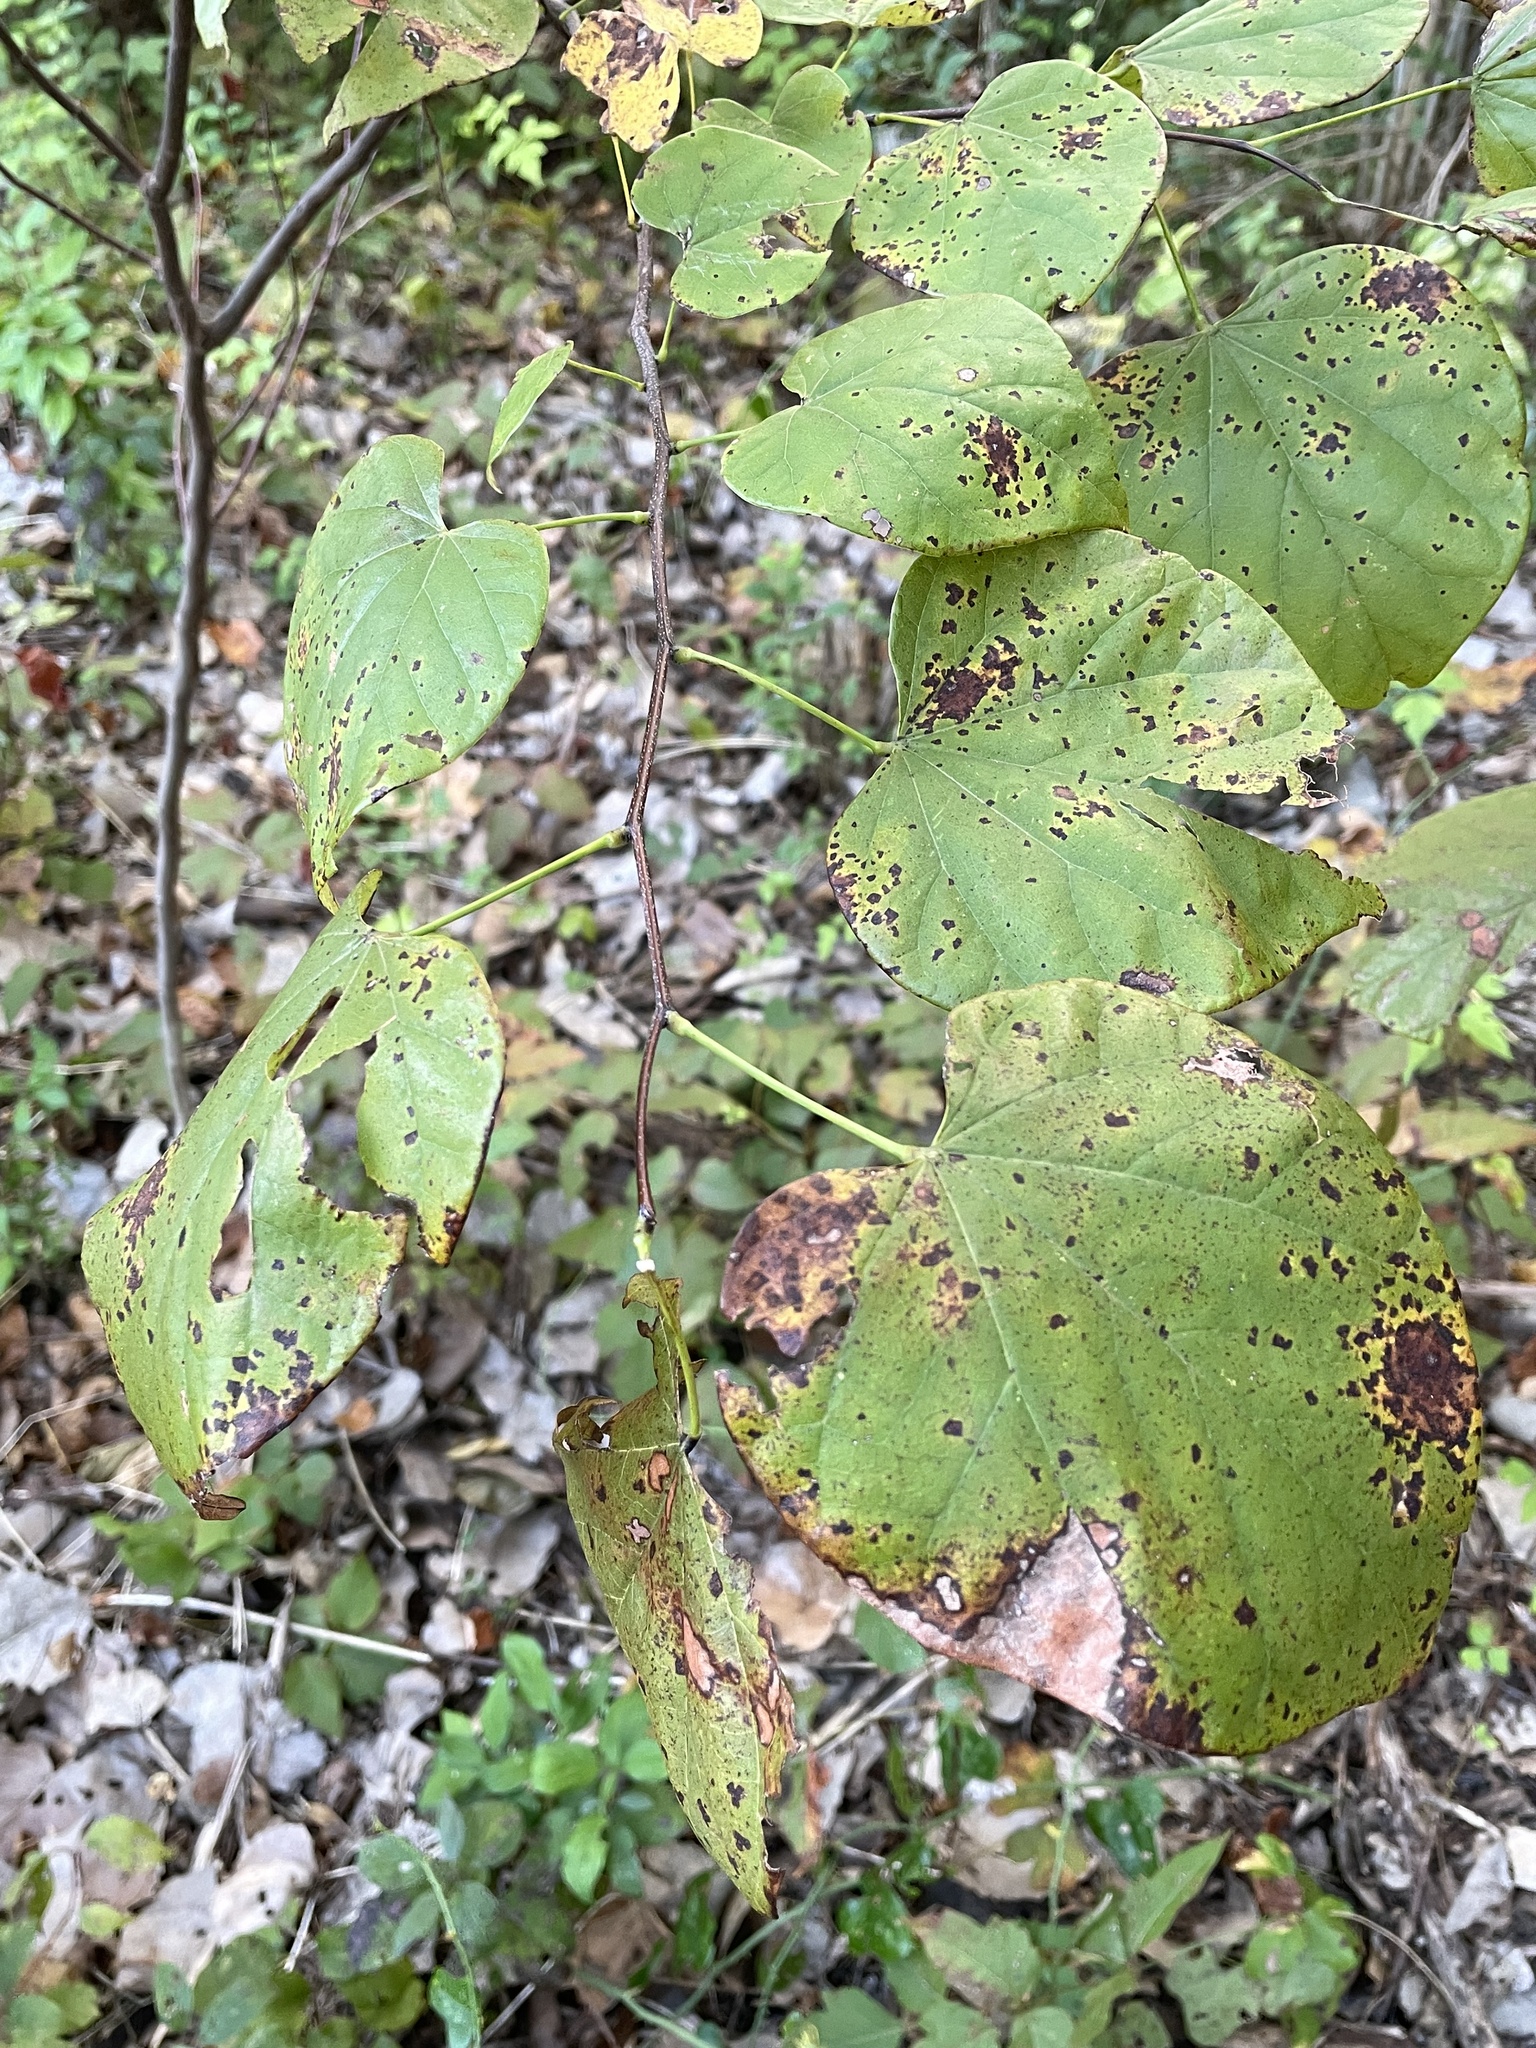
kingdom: Plantae
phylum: Tracheophyta
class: Magnoliopsida
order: Fabales
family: Fabaceae
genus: Cercis
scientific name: Cercis canadensis
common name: Eastern redbud
